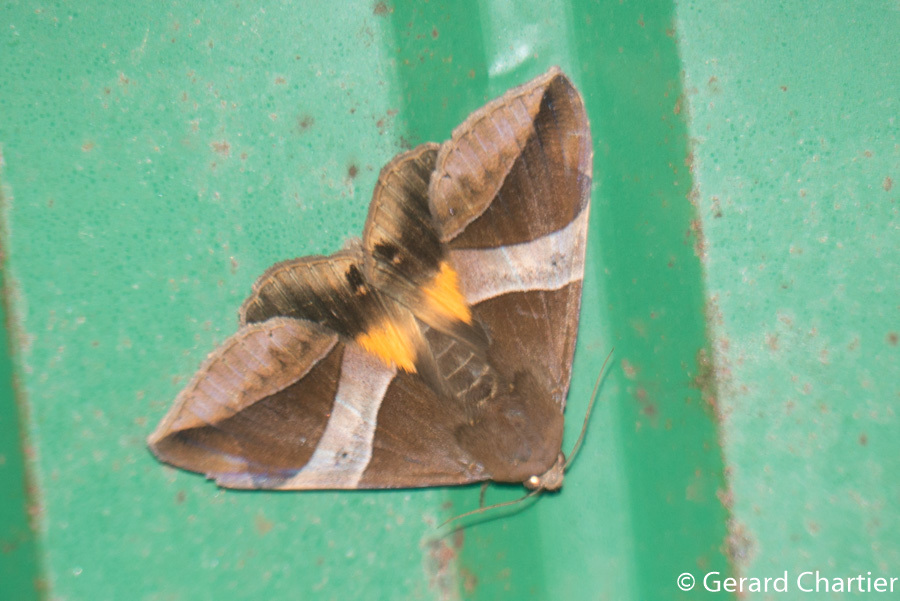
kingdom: Animalia
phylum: Arthropoda
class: Insecta
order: Lepidoptera
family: Erebidae
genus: Bastilla
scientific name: Bastilla fulvotaenia
